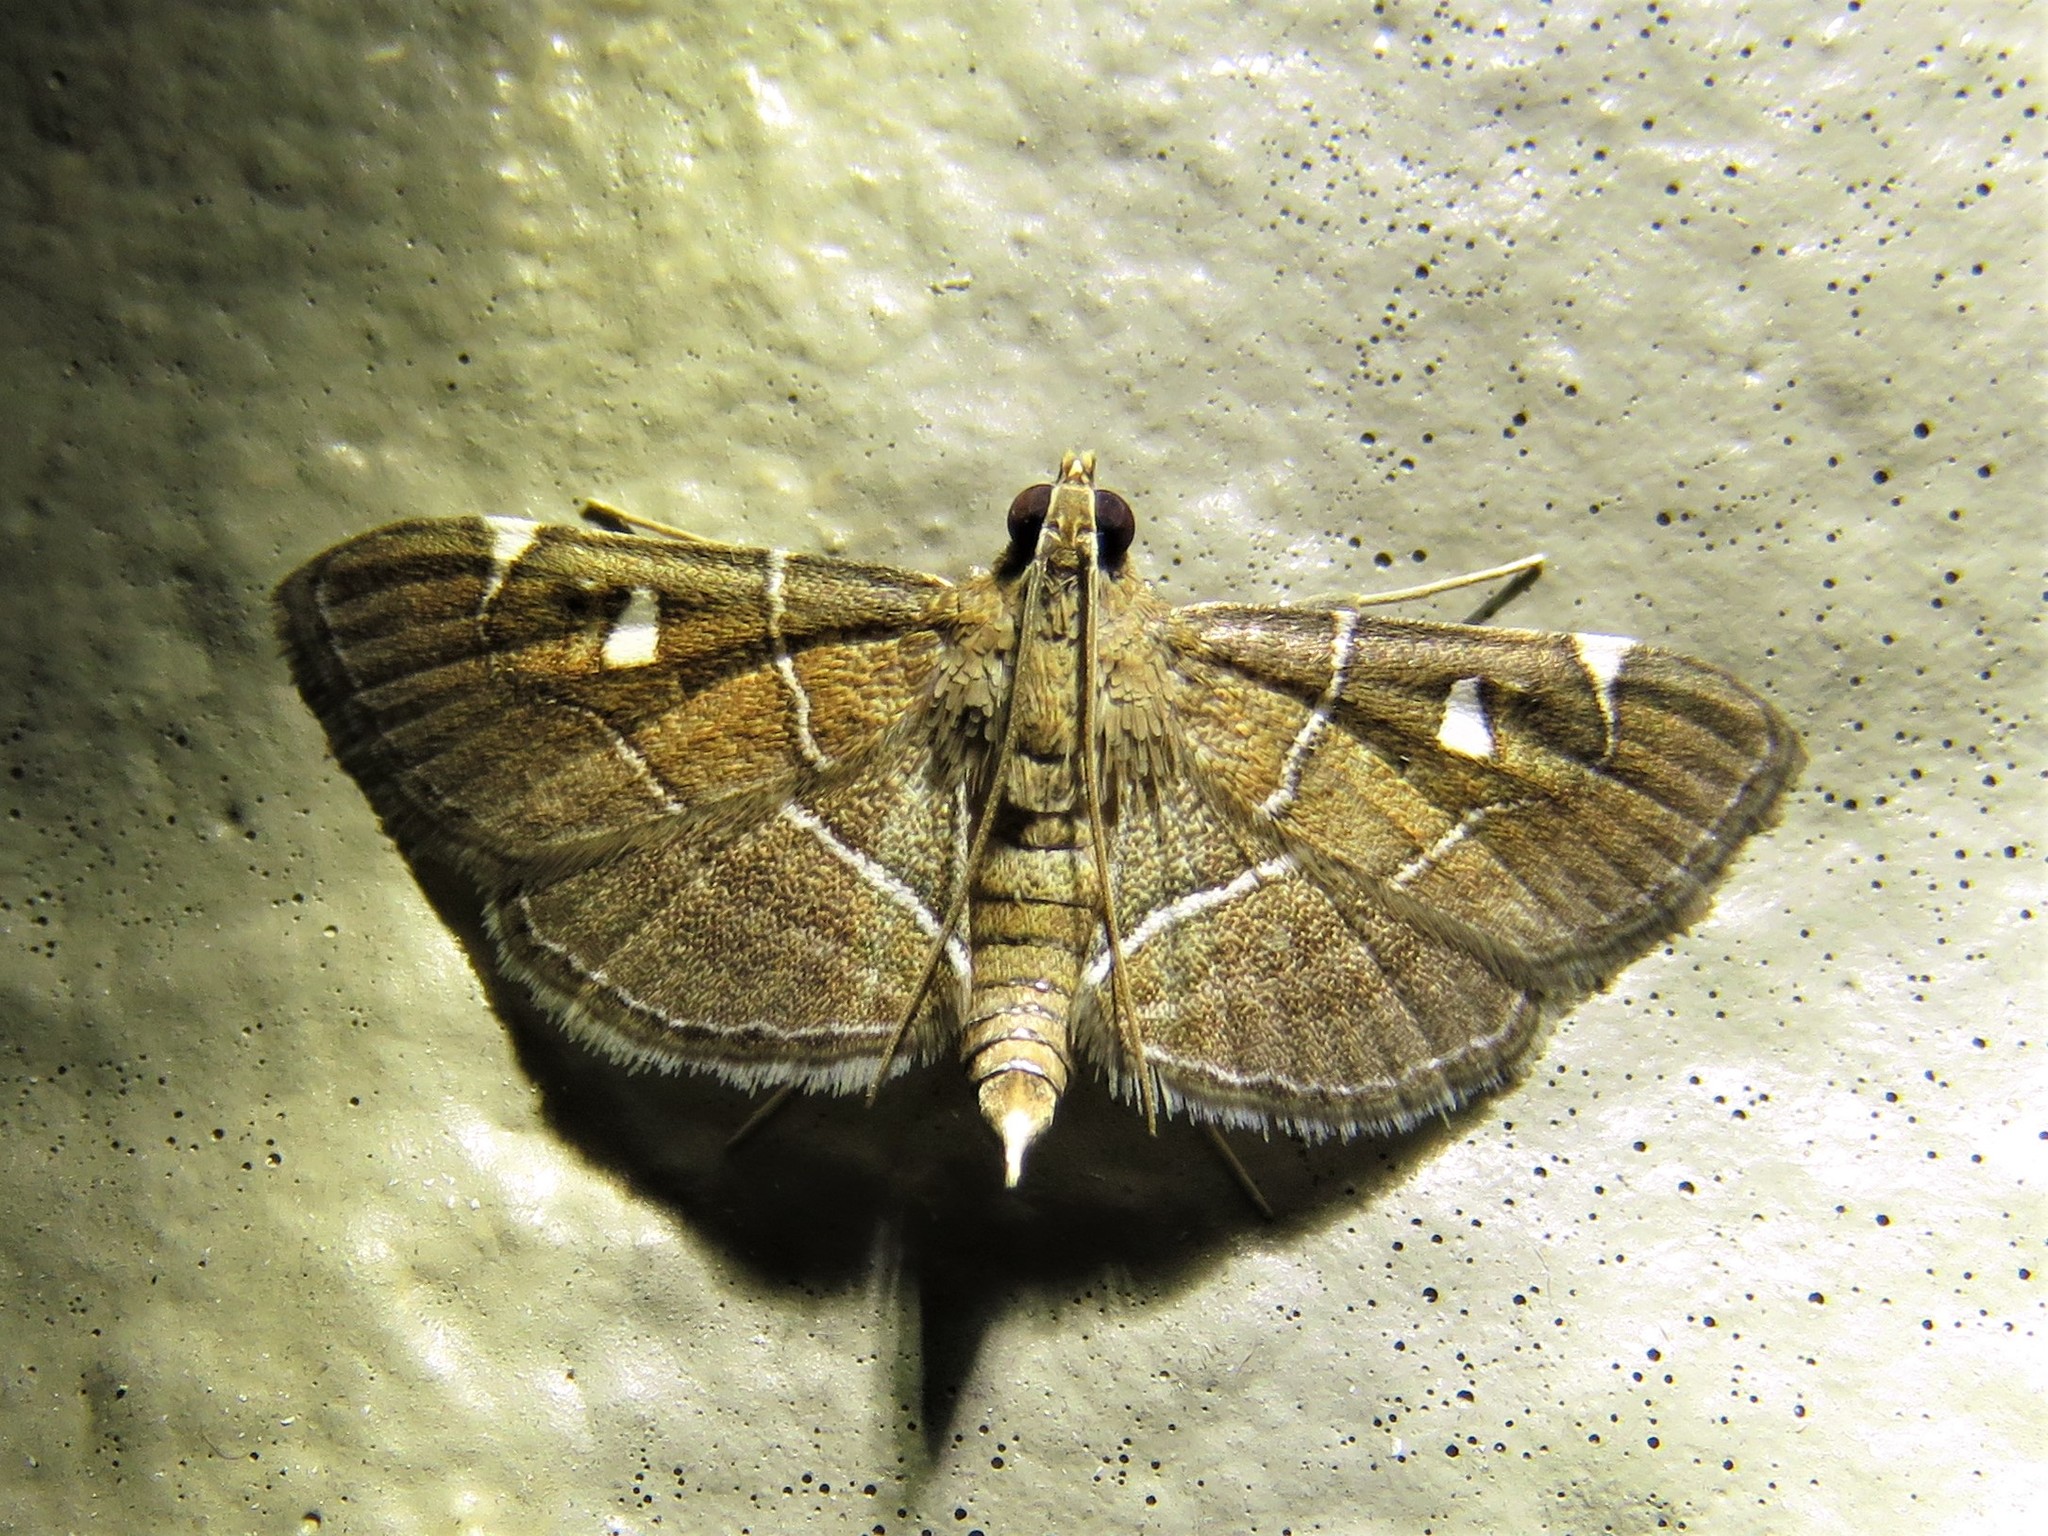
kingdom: Animalia
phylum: Arthropoda
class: Insecta
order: Lepidoptera
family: Crambidae
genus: Lamprosema
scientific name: Lamprosema victoriae
